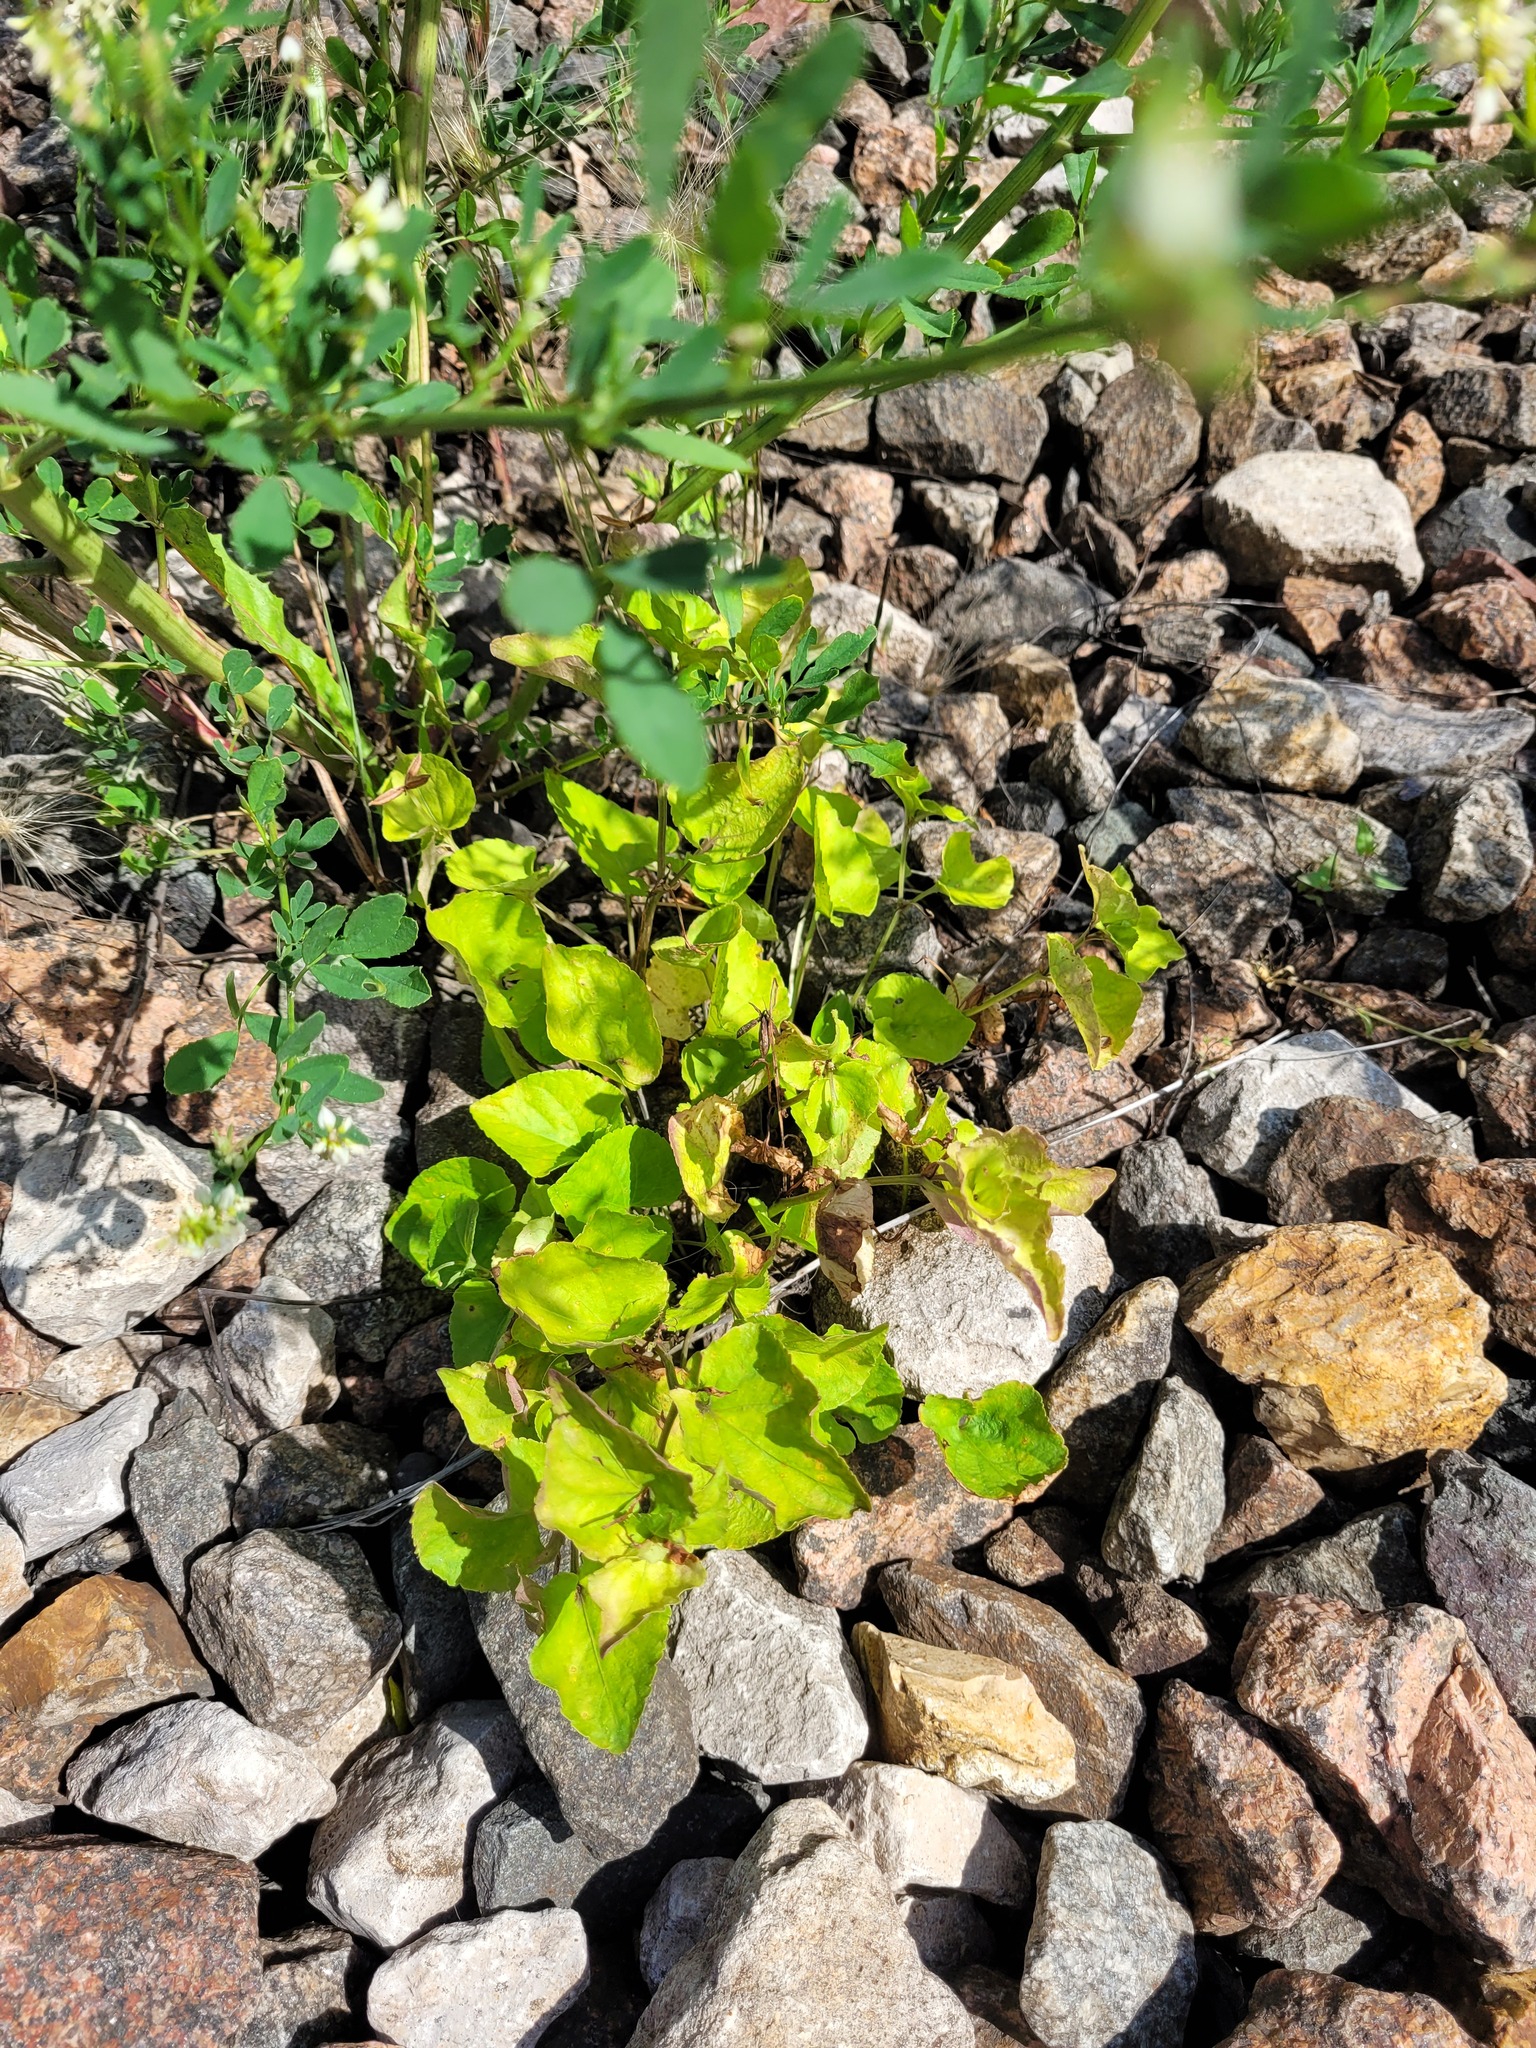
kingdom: Plantae
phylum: Tracheophyta
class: Magnoliopsida
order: Malpighiales
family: Violaceae
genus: Viola
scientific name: Viola mirabilis
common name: Wonder violet
